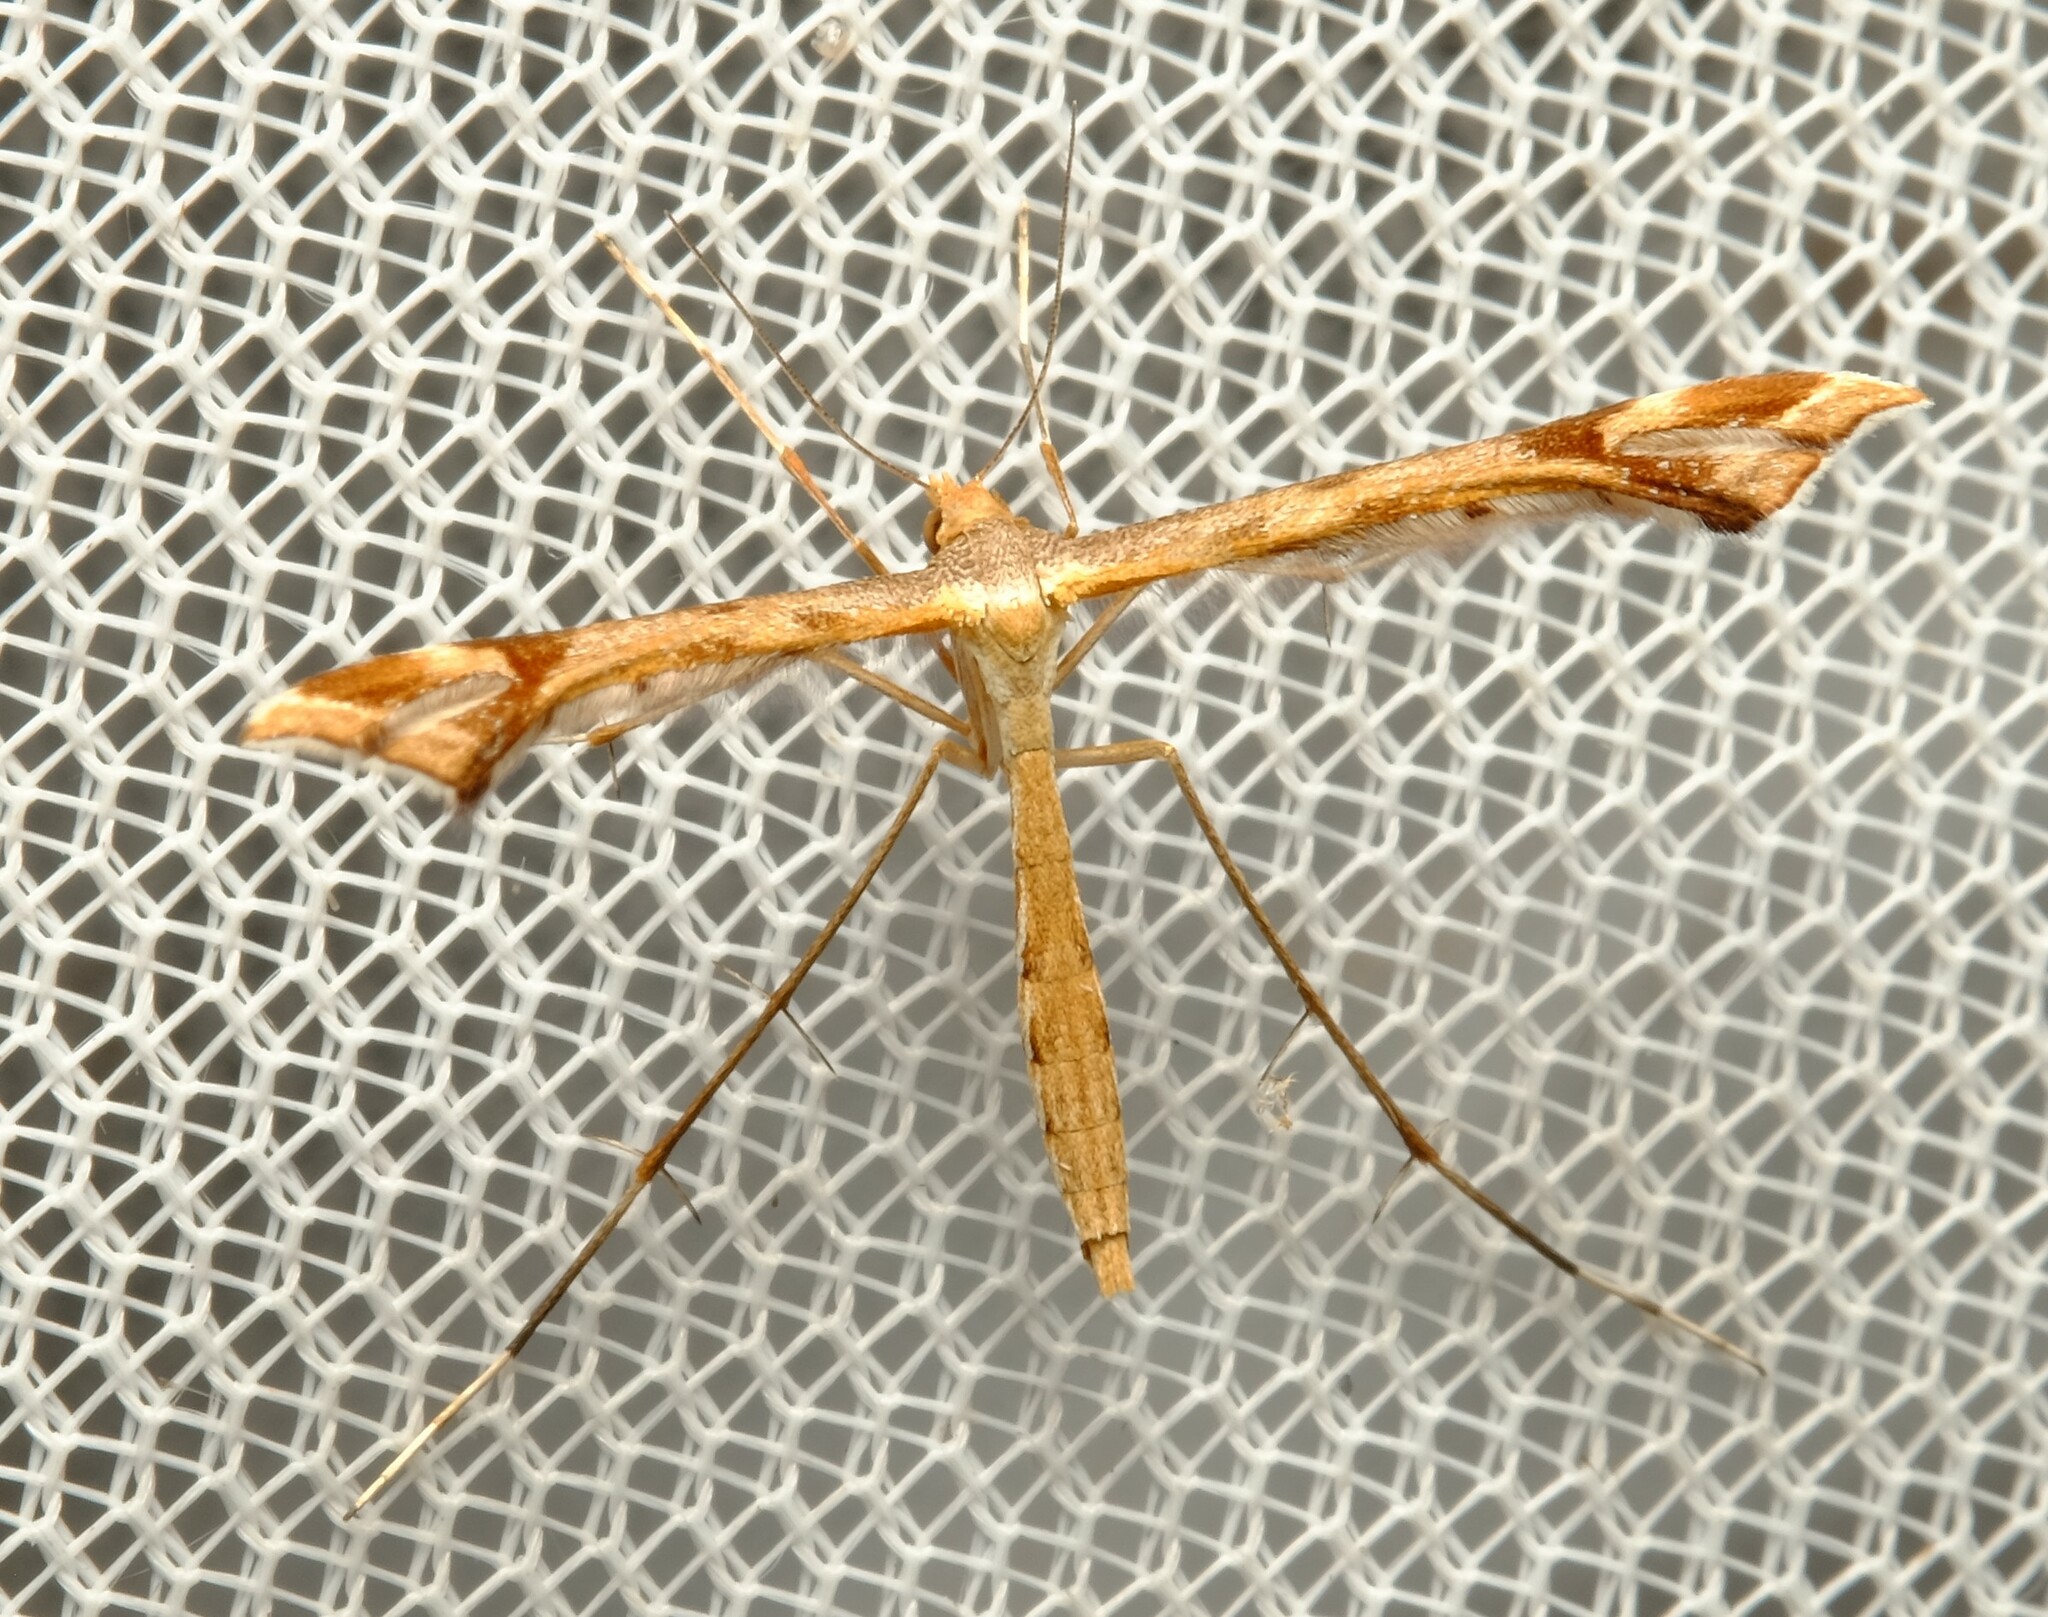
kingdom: Animalia
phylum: Arthropoda
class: Insecta
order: Lepidoptera
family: Pterophoridae
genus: Sinpunctiptilia
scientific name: Sinpunctiptilia emissalis
